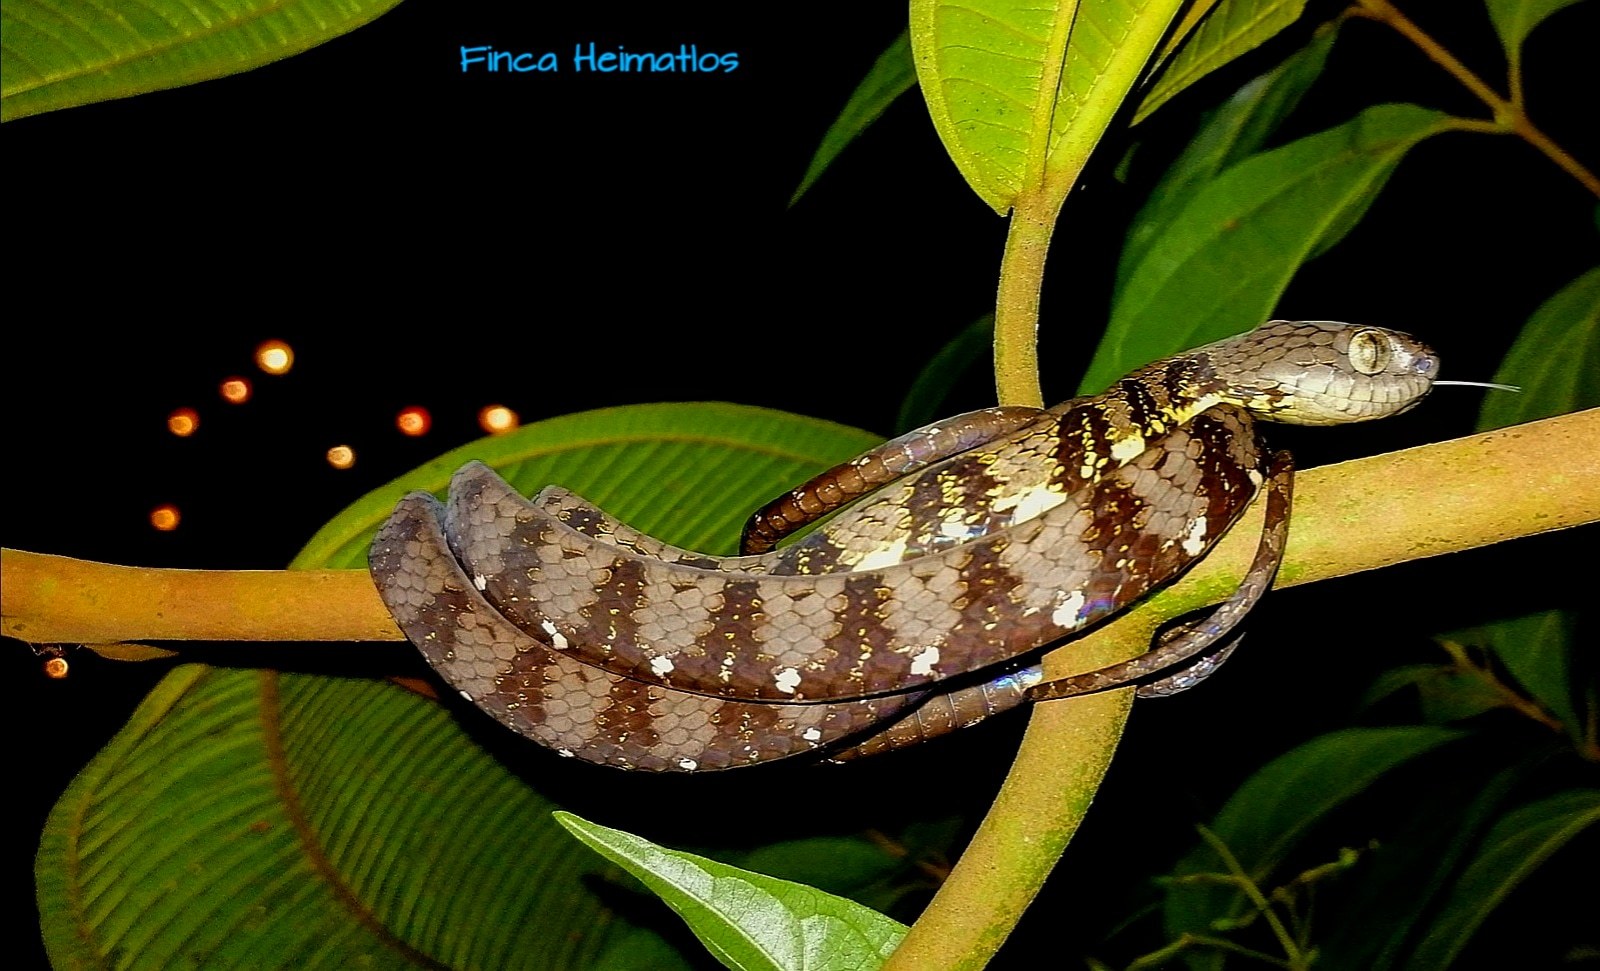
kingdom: Animalia
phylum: Chordata
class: Squamata
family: Colubridae
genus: Dipsas
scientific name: Dipsas indica
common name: Neotropical snail-eater
